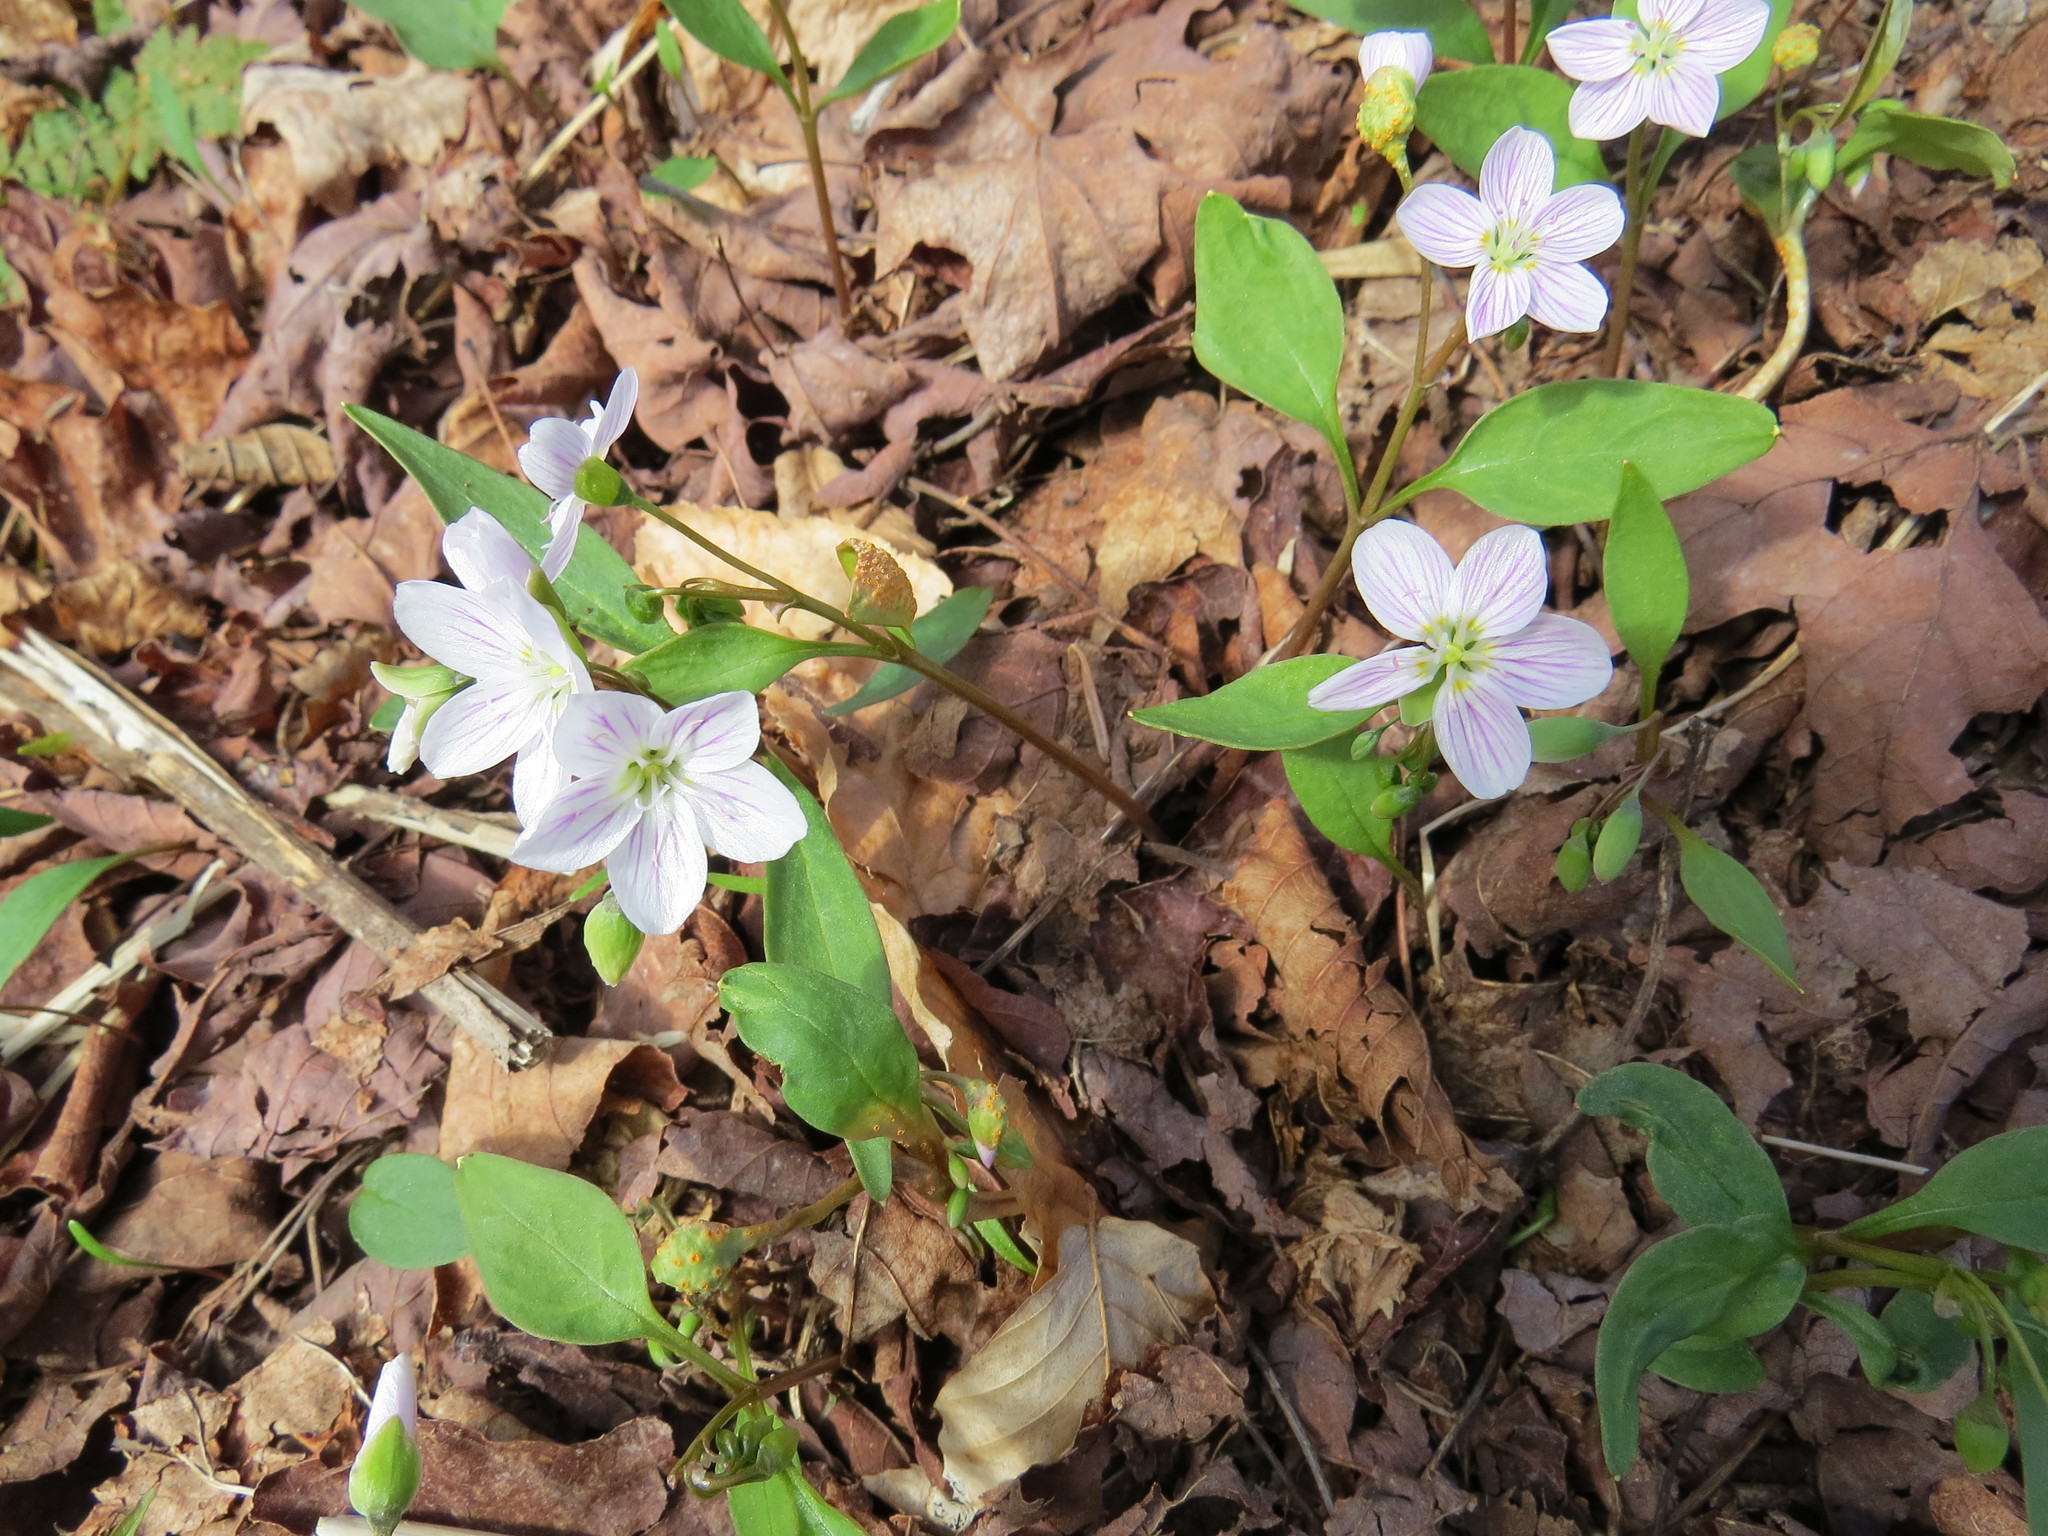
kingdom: Plantae
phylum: Tracheophyta
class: Magnoliopsida
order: Caryophyllales
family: Montiaceae
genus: Claytonia
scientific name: Claytonia caroliniana
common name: Carolina spring beauty
